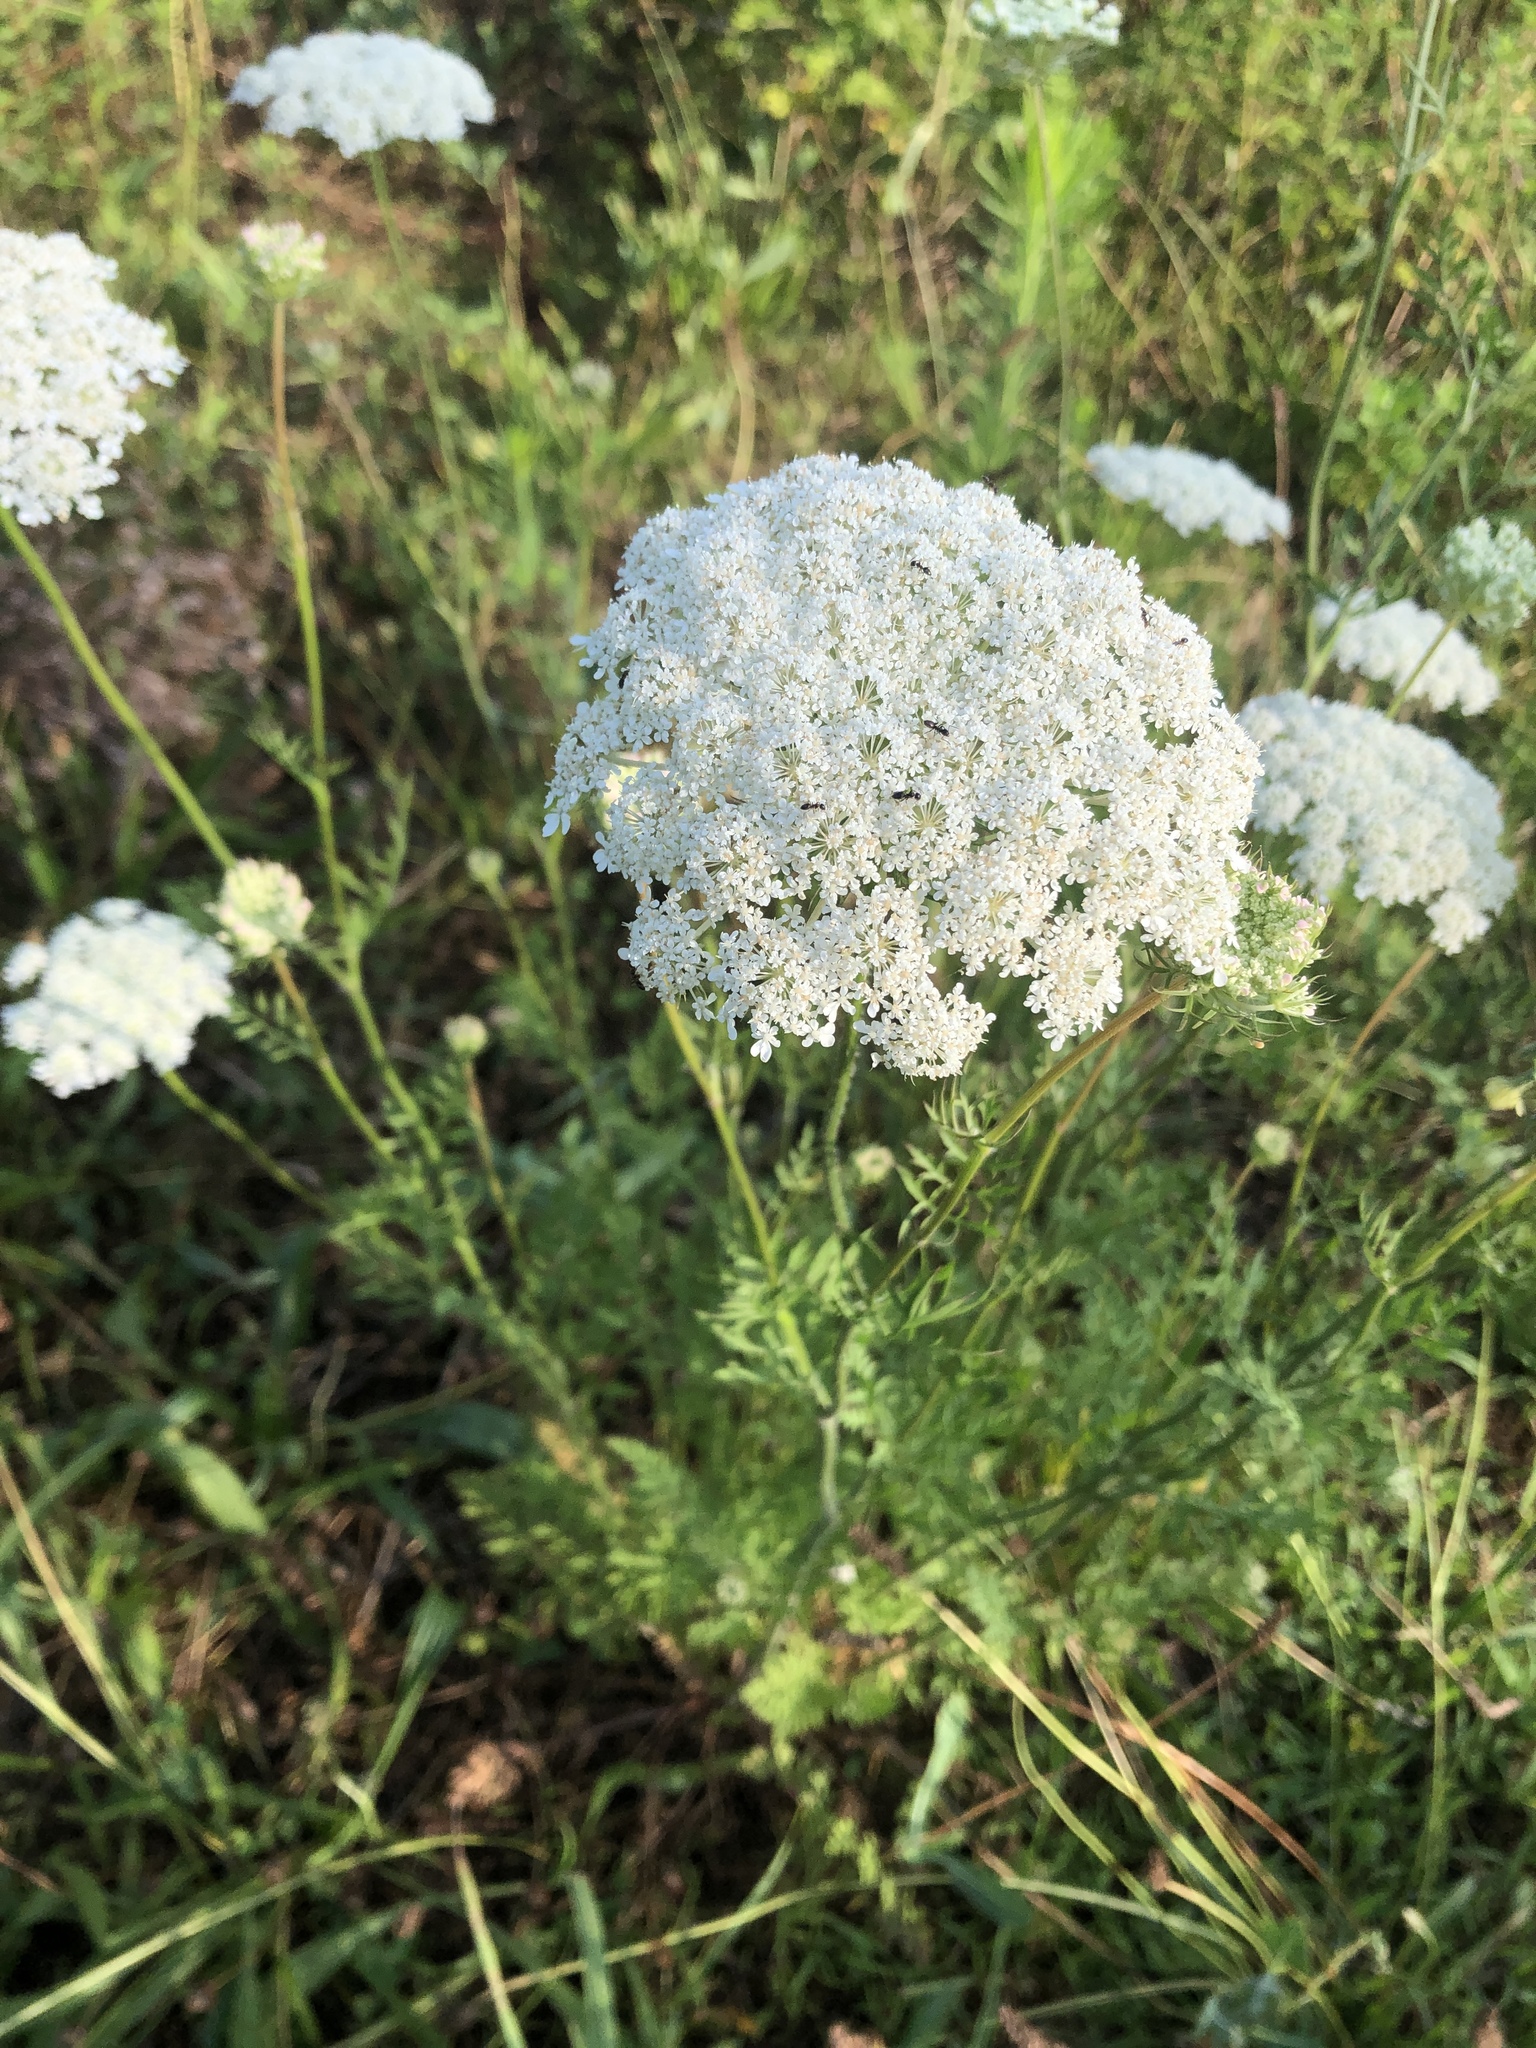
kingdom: Plantae
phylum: Tracheophyta
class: Magnoliopsida
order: Apiales
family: Apiaceae
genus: Daucus
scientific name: Daucus carota
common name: Wild carrot
